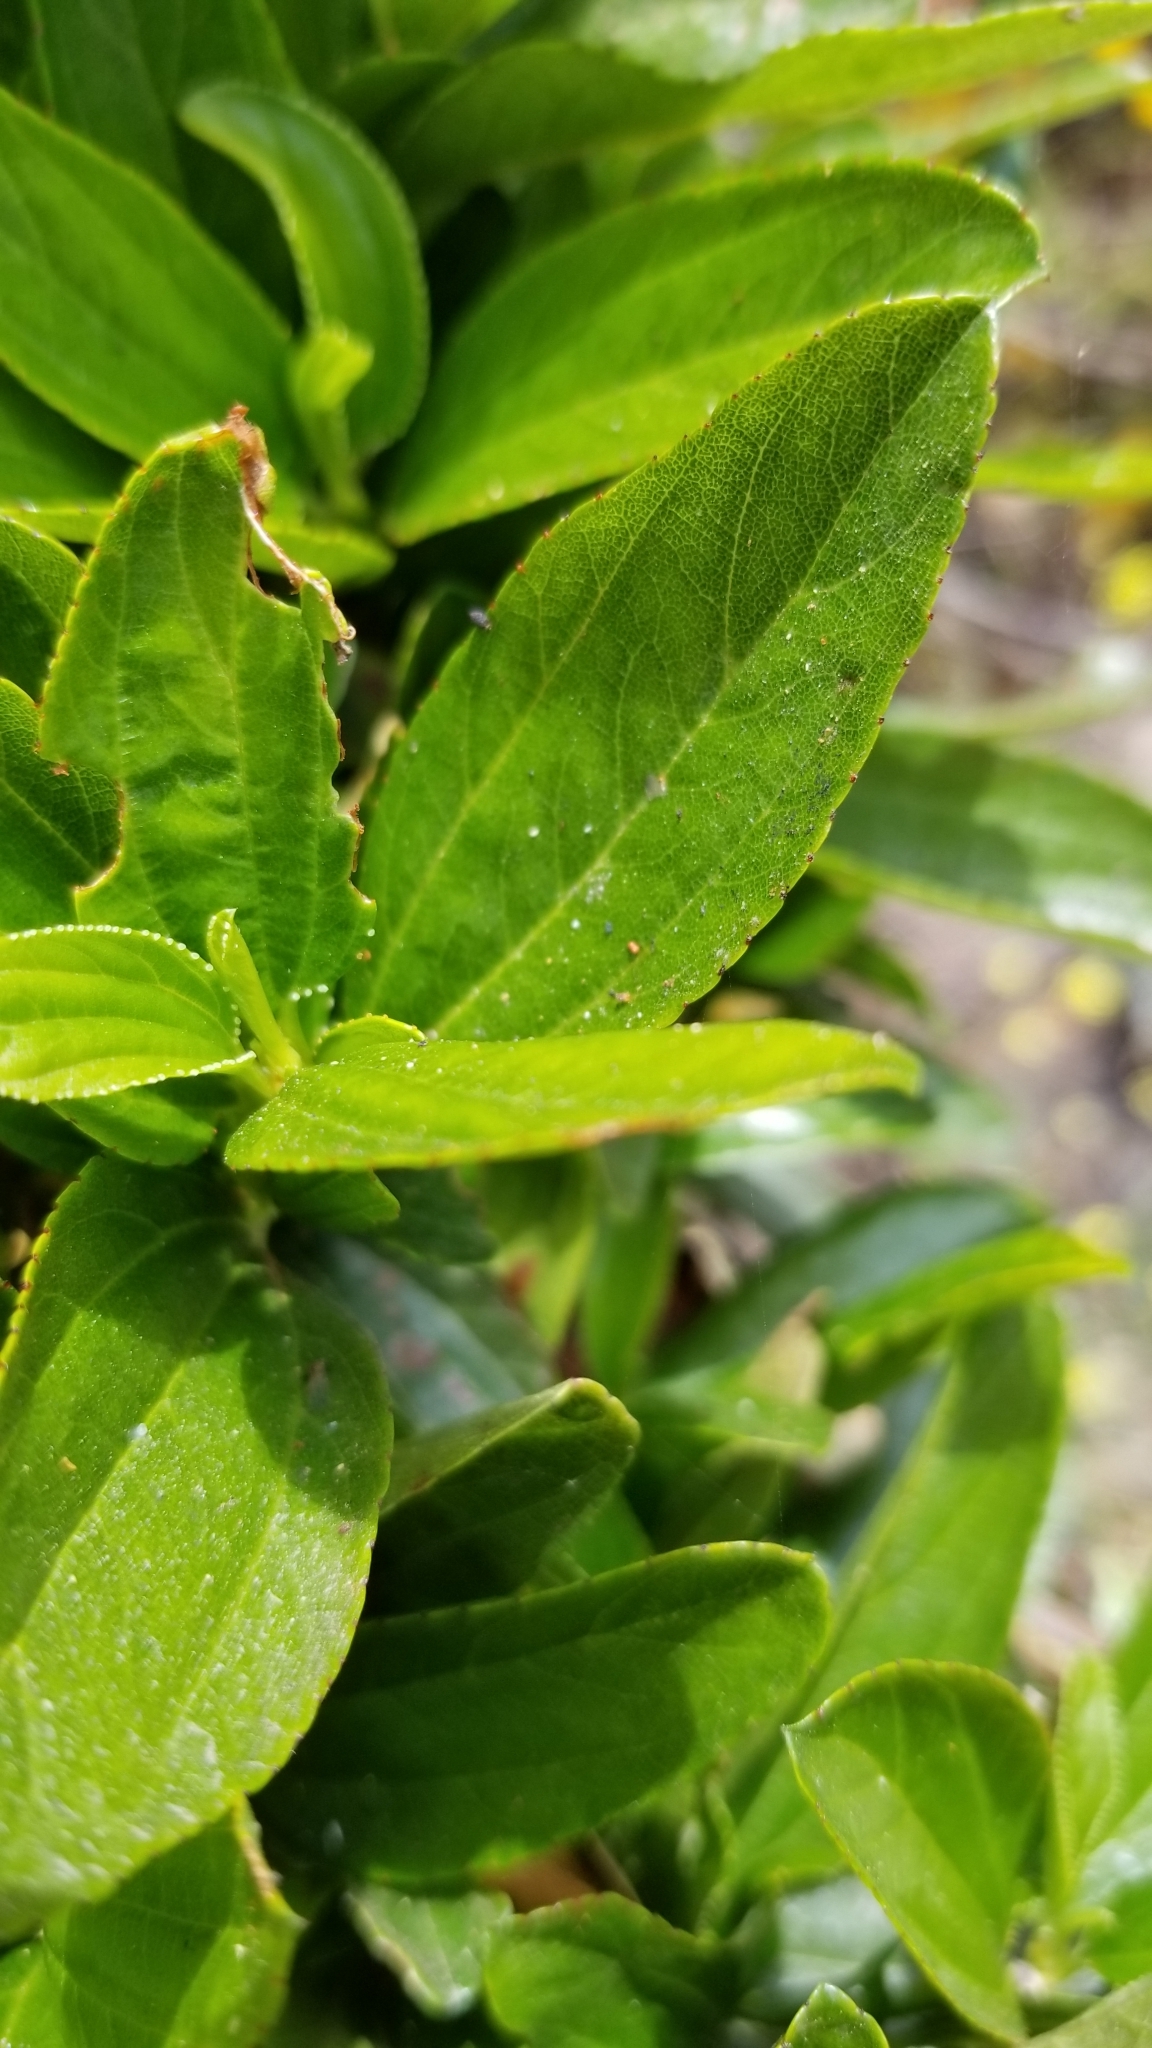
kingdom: Plantae
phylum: Tracheophyta
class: Magnoliopsida
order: Rosales
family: Rhamnaceae
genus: Ceanothus
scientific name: Ceanothus thyrsiflorus
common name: California-lilac
